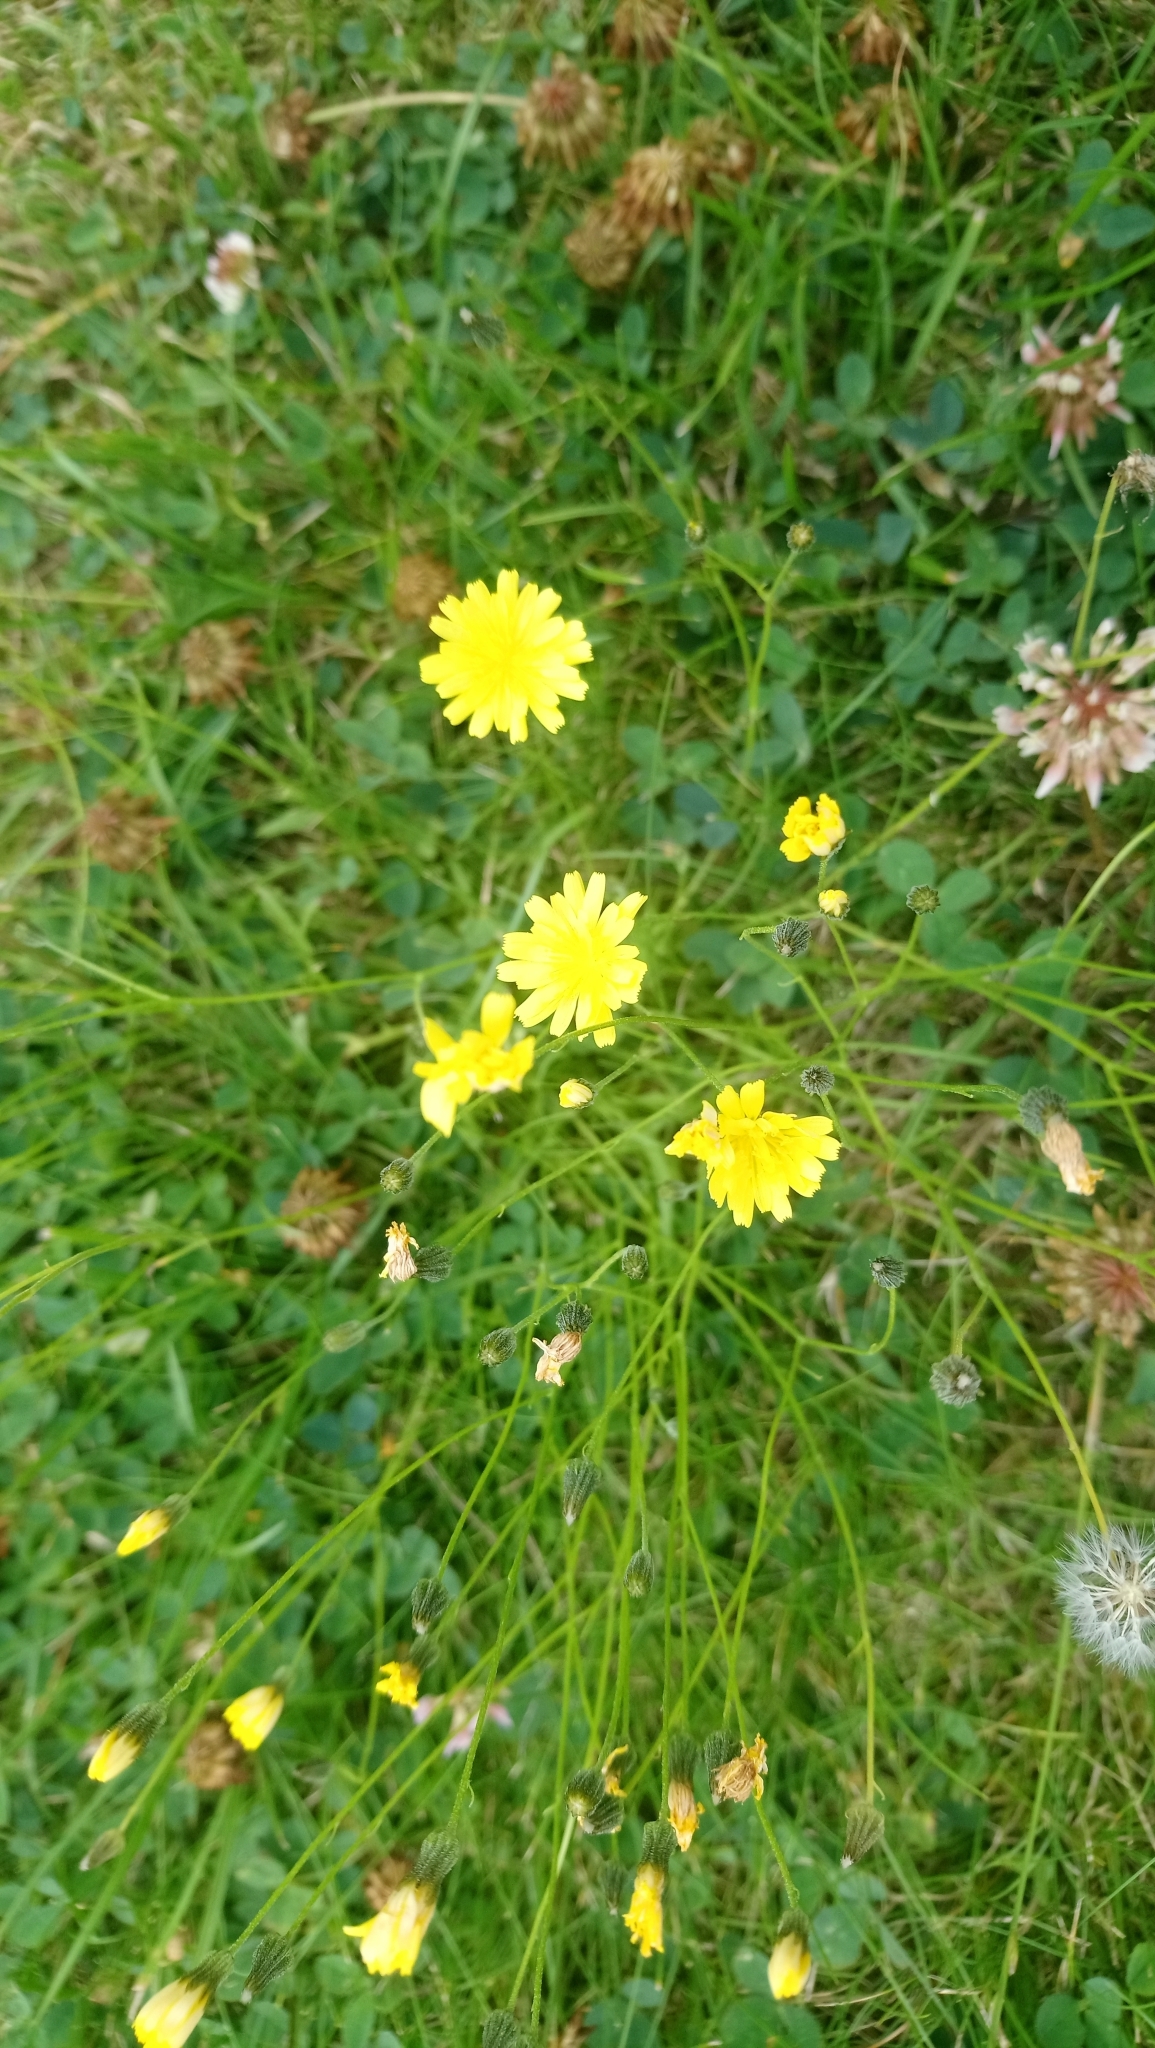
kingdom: Plantae
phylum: Tracheophyta
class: Magnoliopsida
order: Asterales
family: Asteraceae
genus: Crepis
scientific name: Crepis capillaris
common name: Smooth hawksbeard
